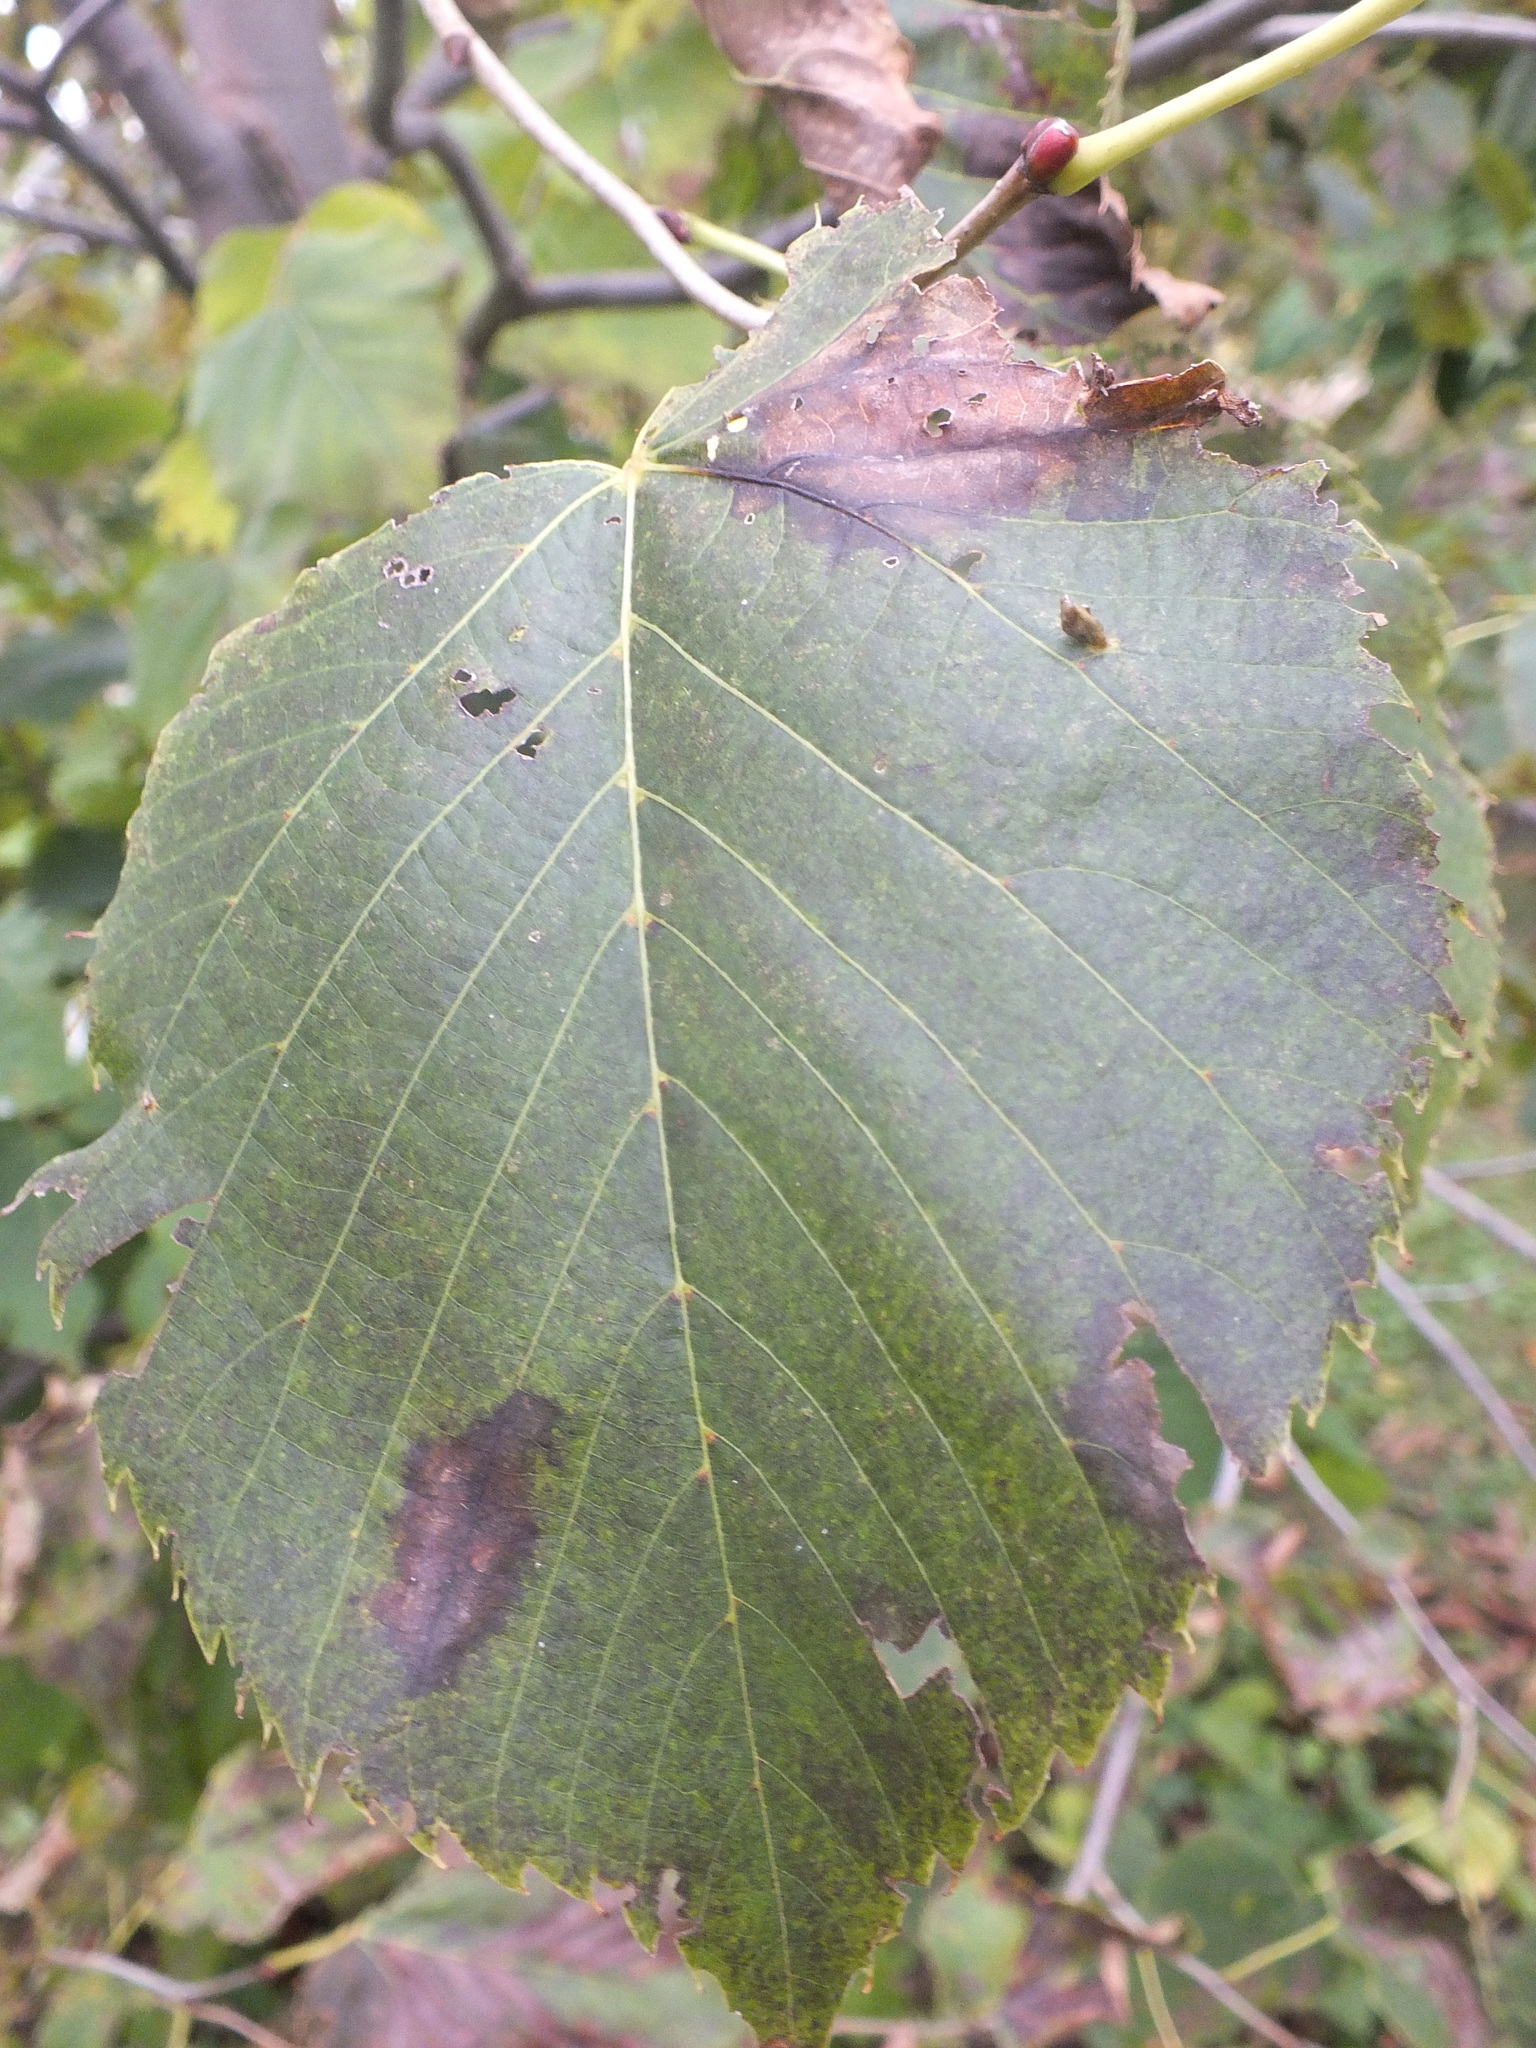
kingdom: Animalia
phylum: Arthropoda
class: Arachnida
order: Trombidiformes
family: Eriophyidae
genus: Eriophyes
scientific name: Eriophyes tiliae
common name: Red nail gall mite
